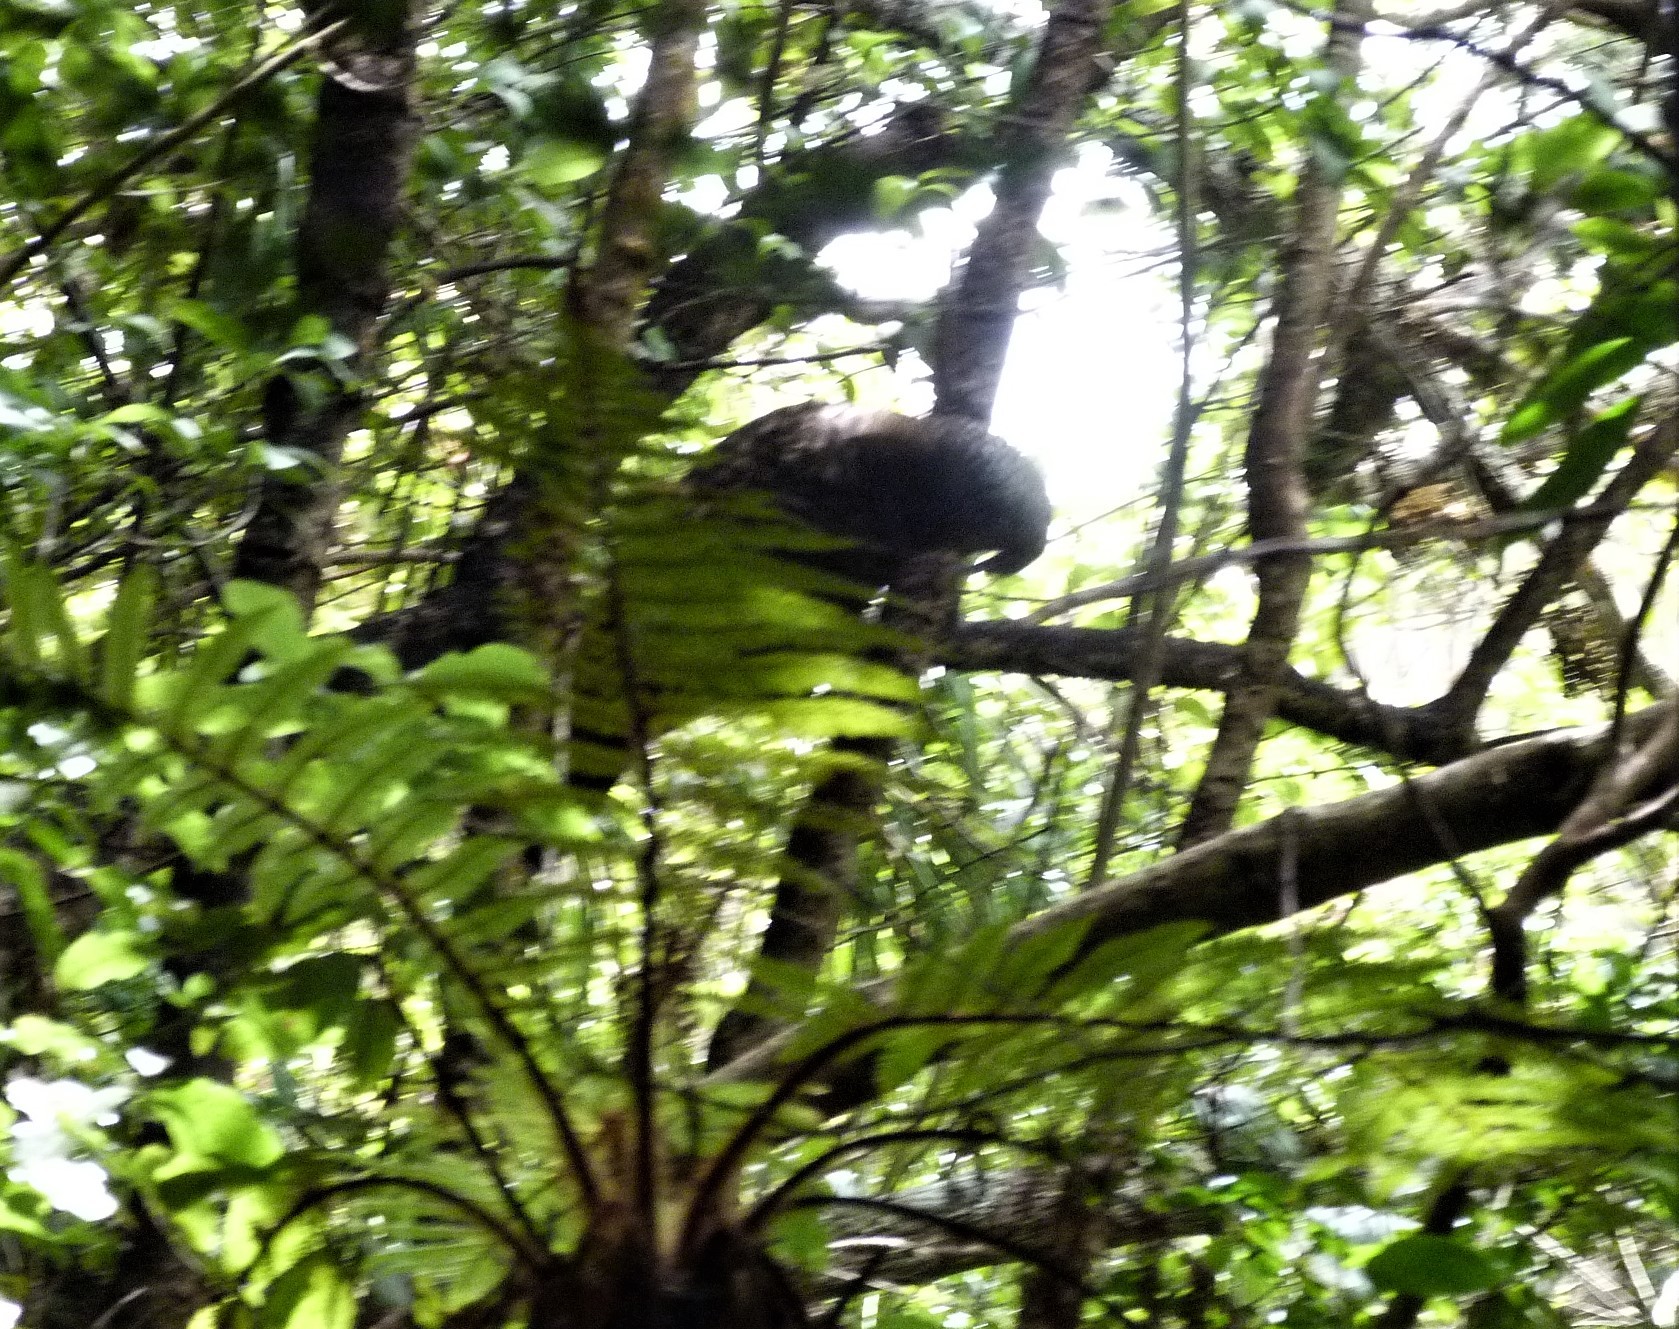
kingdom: Animalia
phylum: Chordata
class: Aves
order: Psittaciformes
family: Psittacidae
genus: Nestor
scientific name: Nestor meridionalis
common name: New zealand kaka
